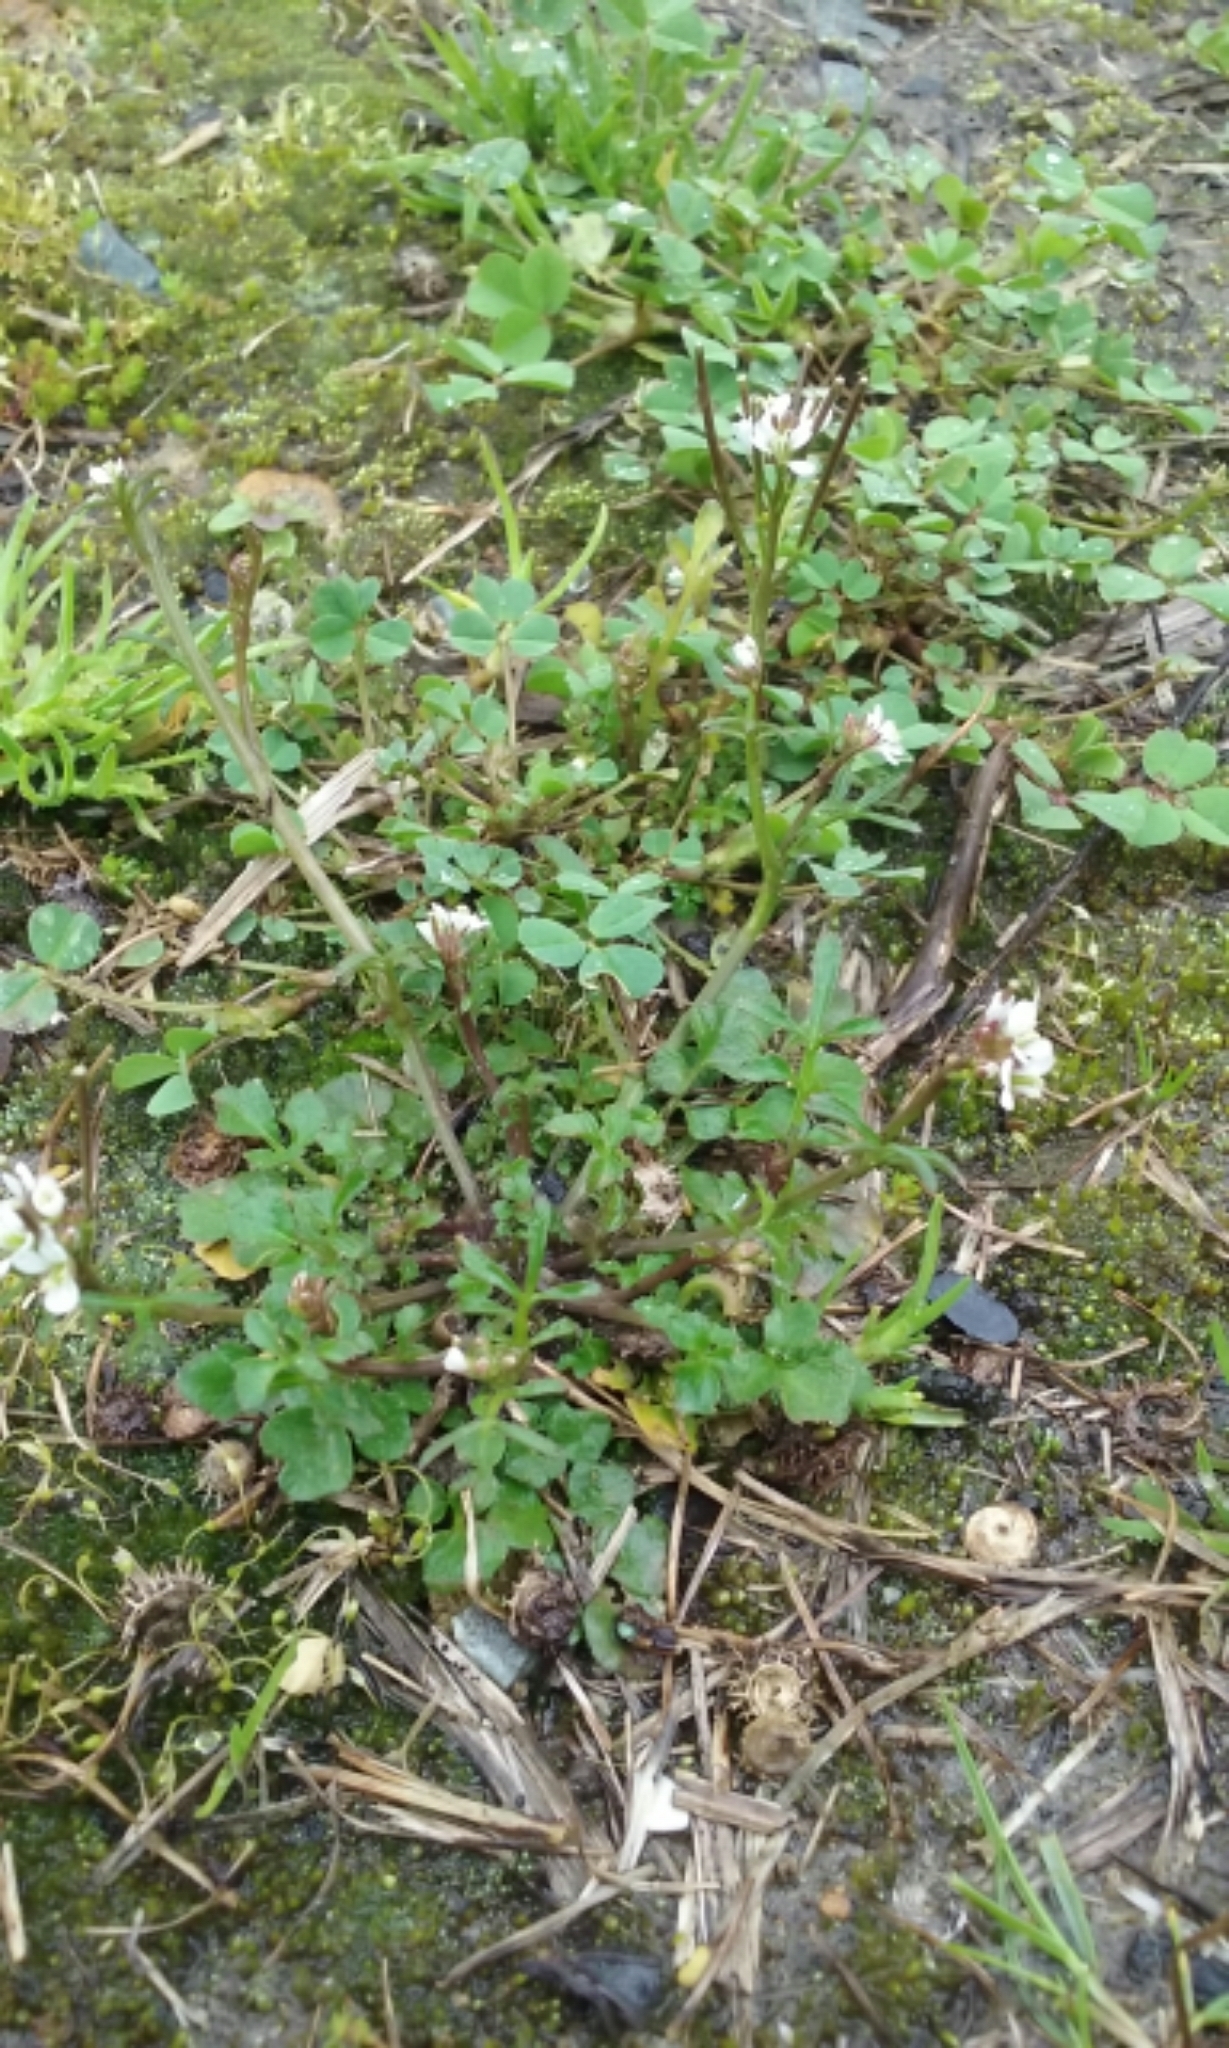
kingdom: Plantae
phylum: Tracheophyta
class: Magnoliopsida
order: Brassicales
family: Brassicaceae
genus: Cardamine
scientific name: Cardamine hirsuta
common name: Hairy bittercress
